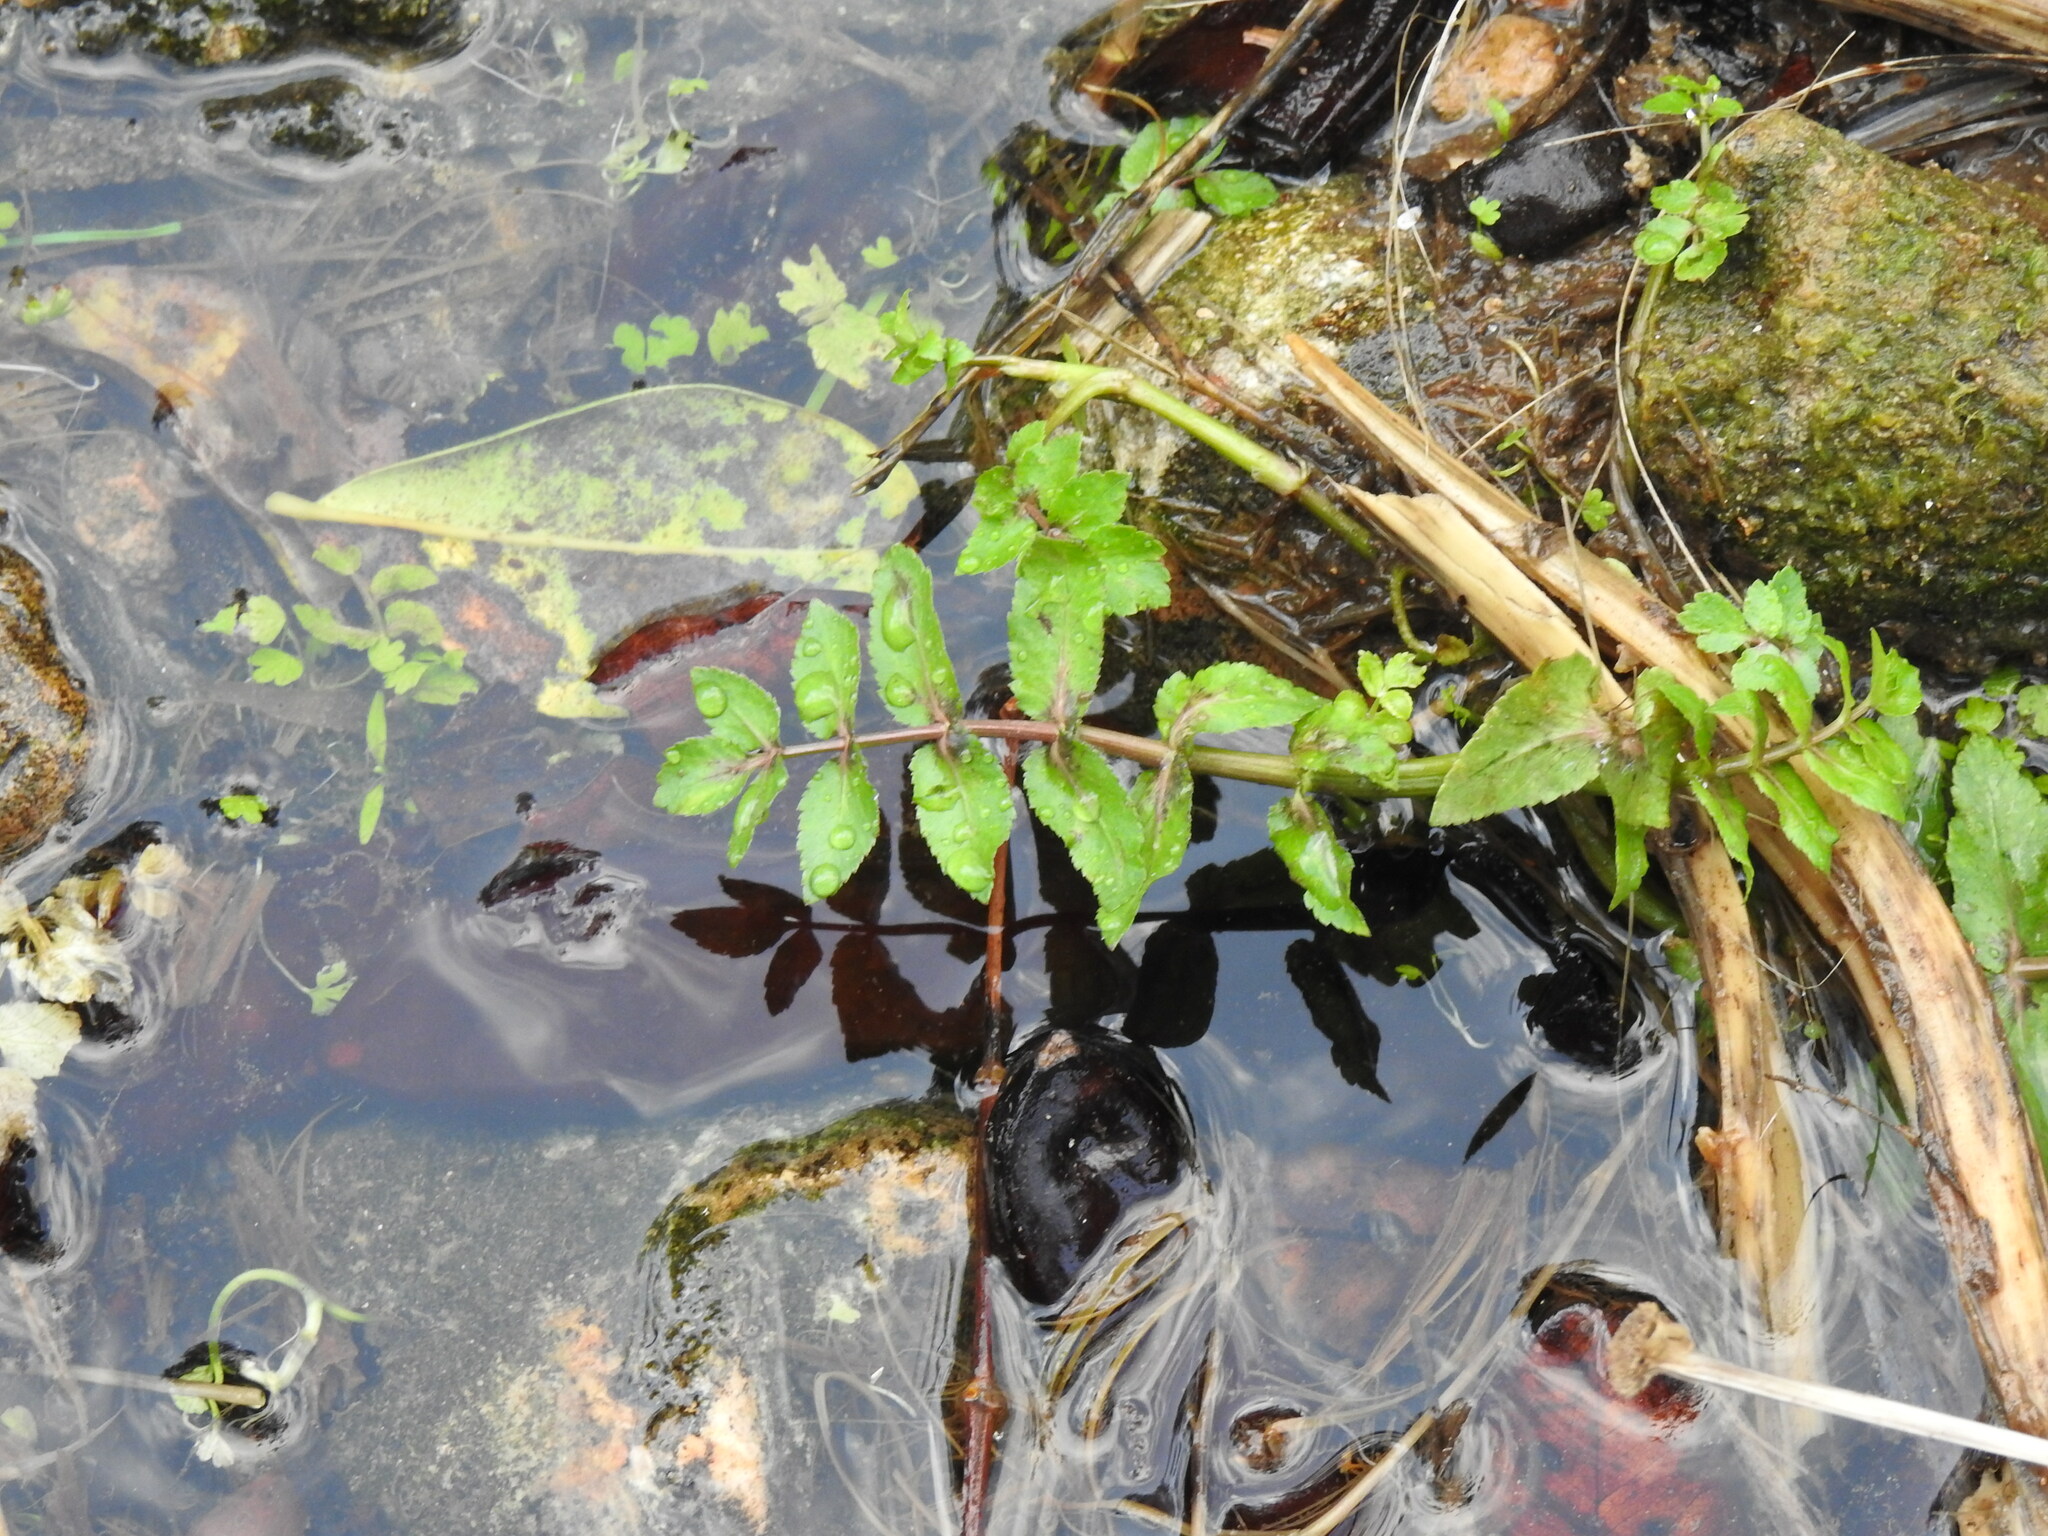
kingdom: Plantae
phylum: Tracheophyta
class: Magnoliopsida
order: Apiales
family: Apiaceae
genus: Helosciadium
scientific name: Helosciadium nodiflorum
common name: Fool's-watercress
